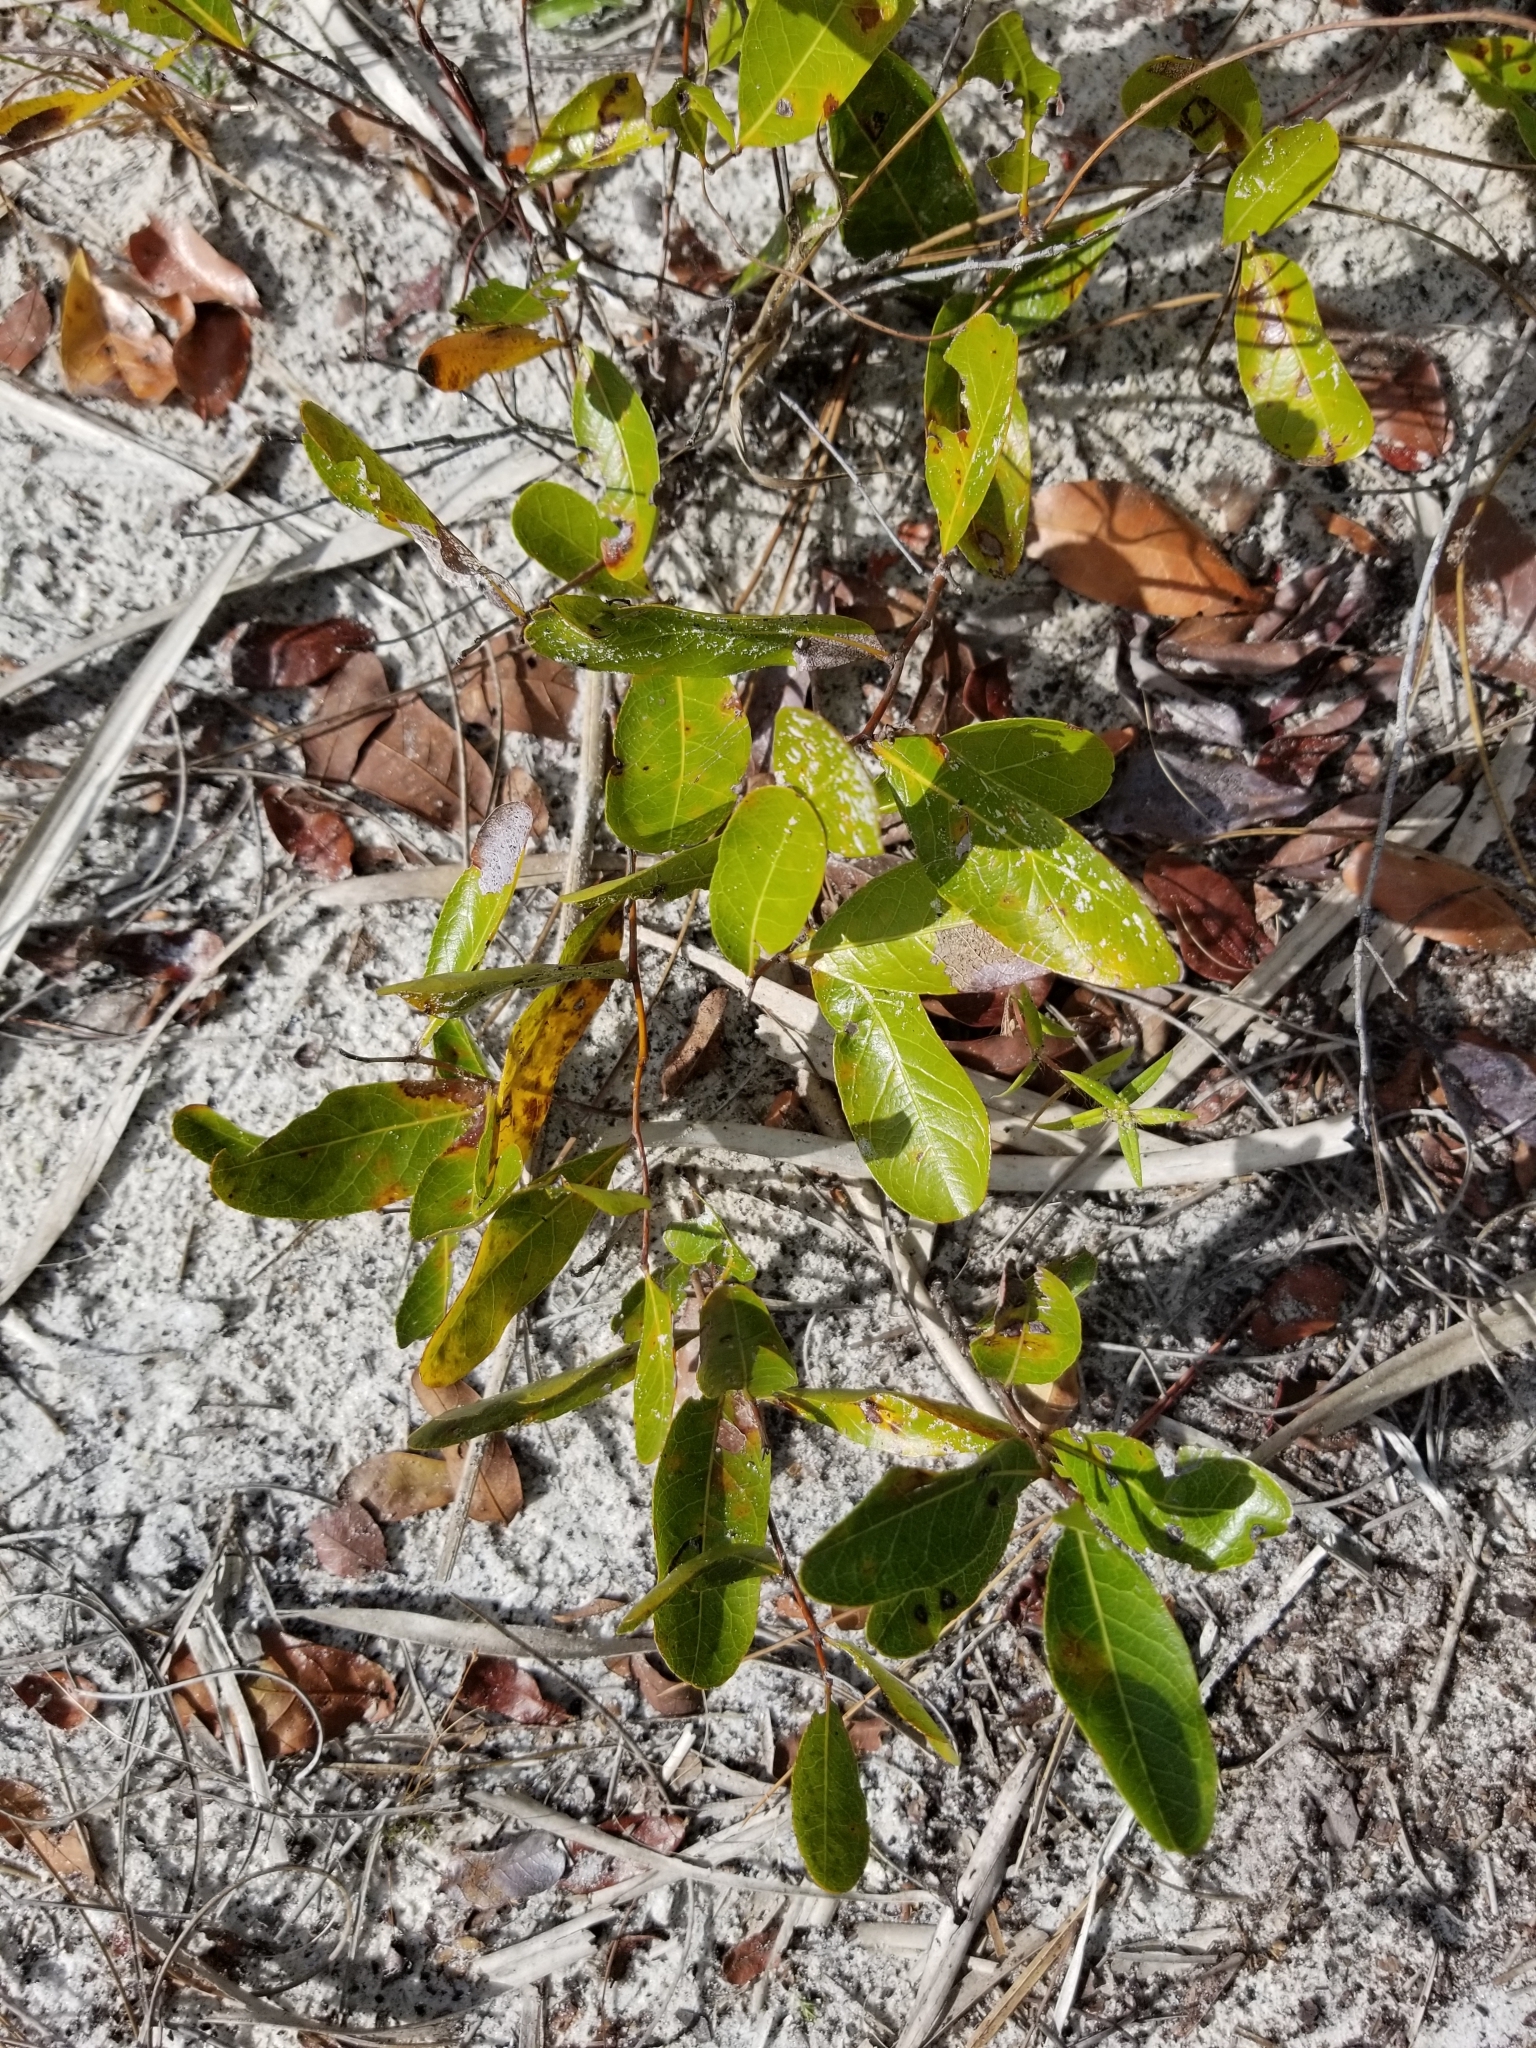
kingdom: Plantae
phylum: Tracheophyta
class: Magnoliopsida
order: Malpighiales
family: Chrysobalanaceae
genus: Geobalanus
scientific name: Geobalanus oblongifolius
